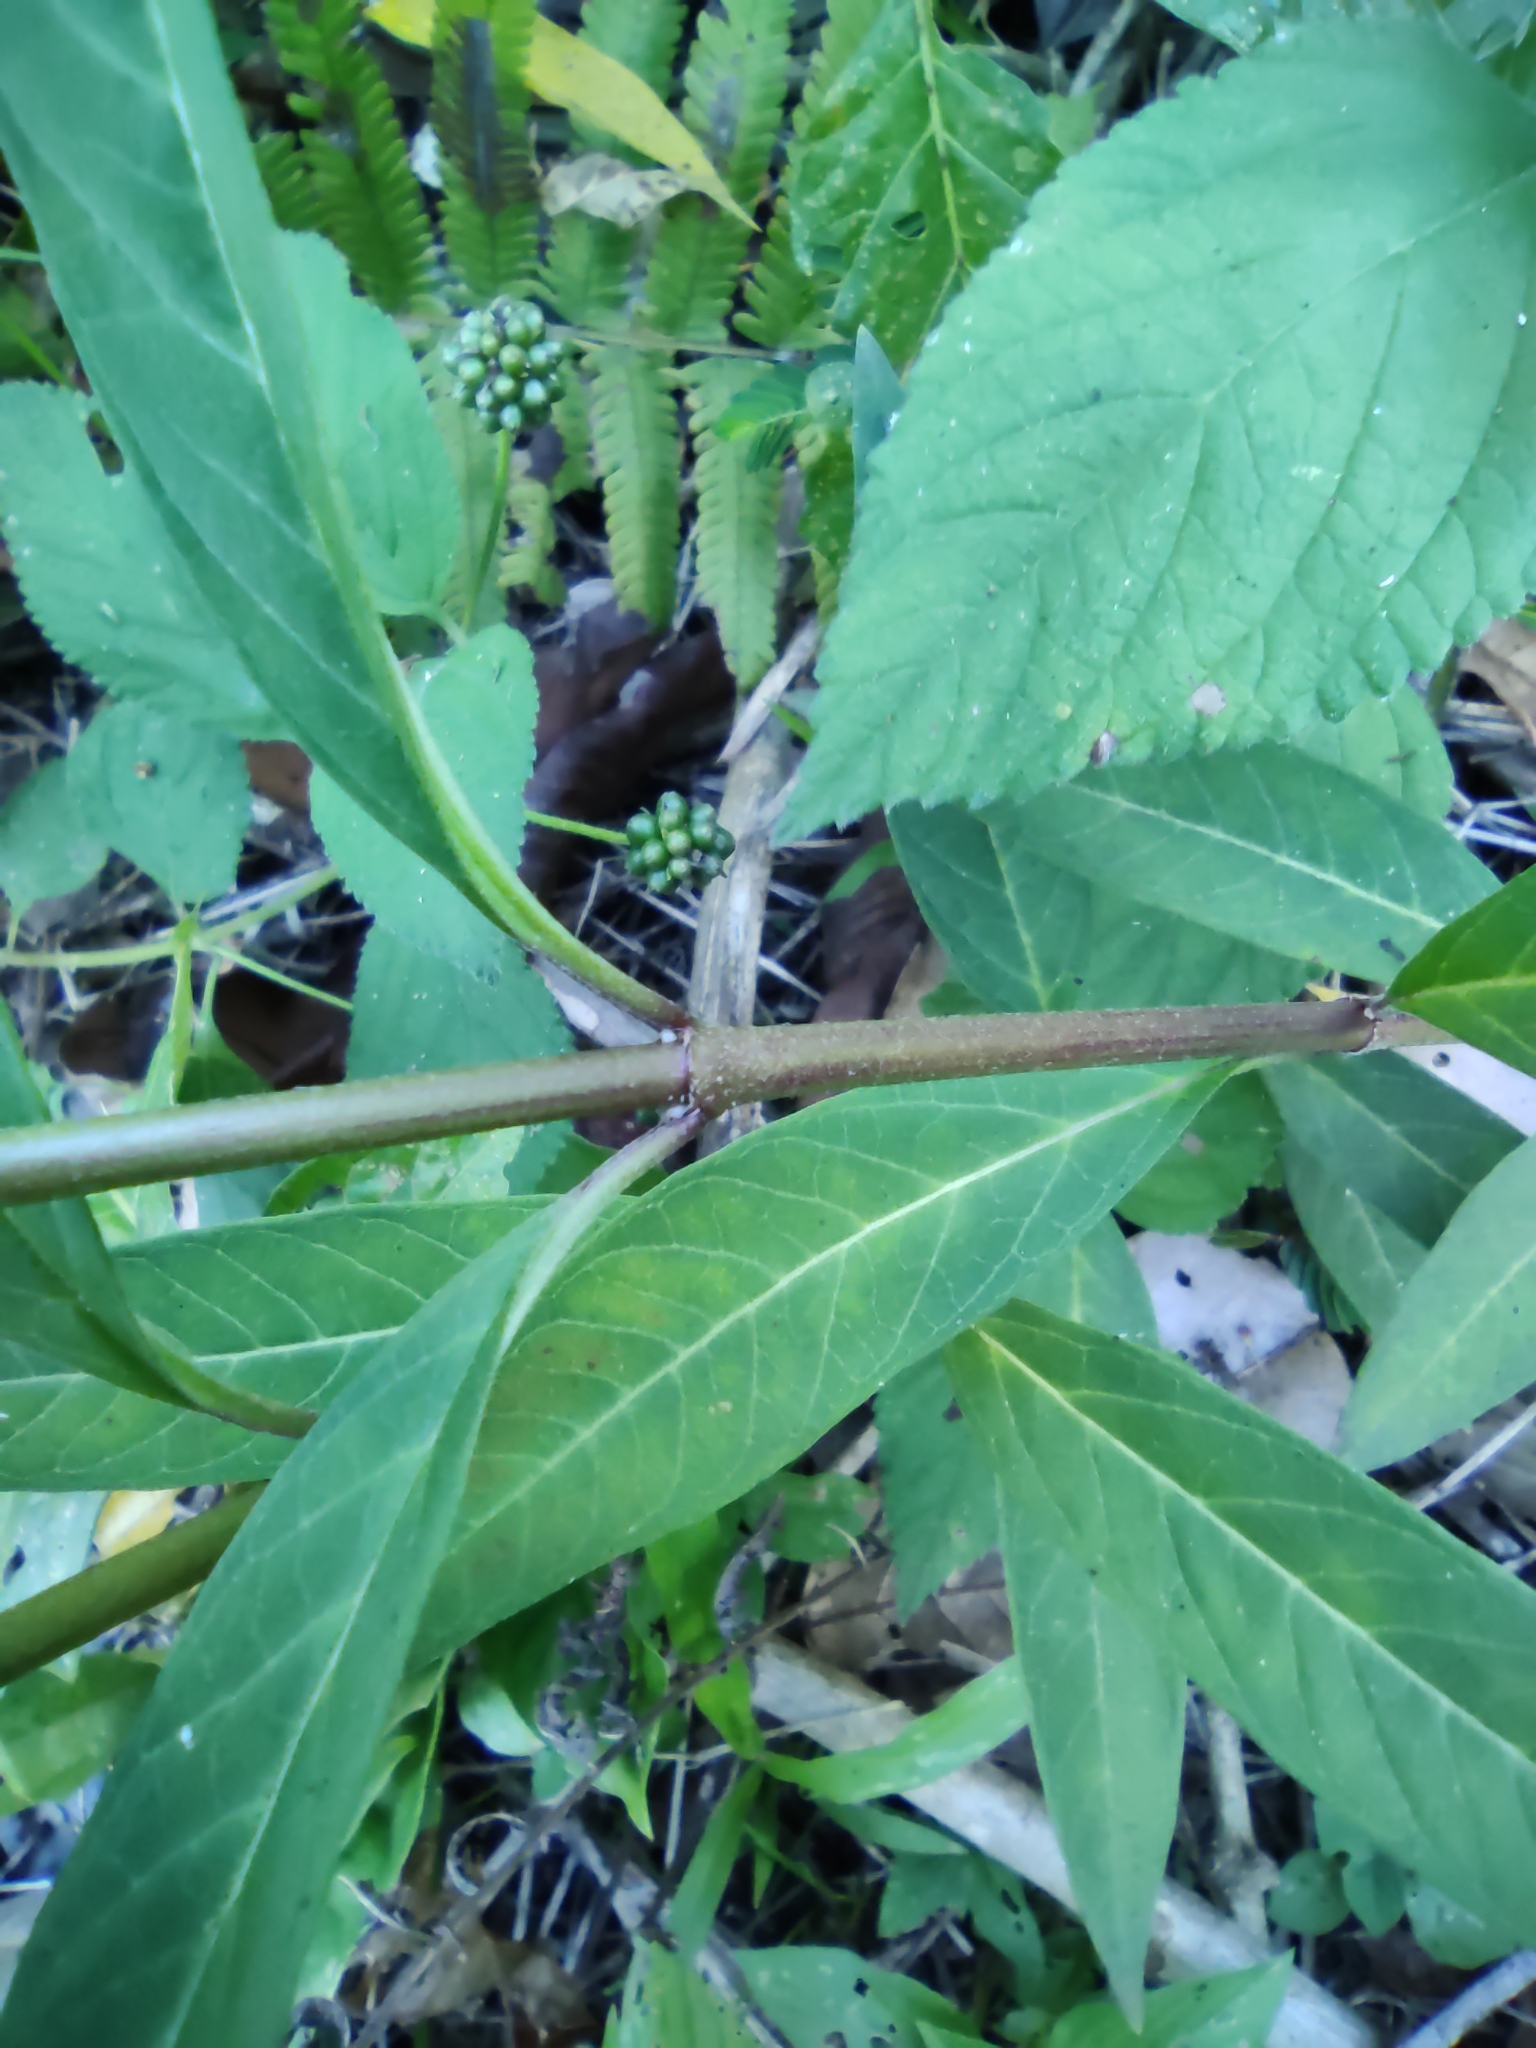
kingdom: Plantae
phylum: Tracheophyta
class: Magnoliopsida
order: Gentianales
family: Apocynaceae
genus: Asclepias
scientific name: Asclepias curassavica
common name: Bloodflower
